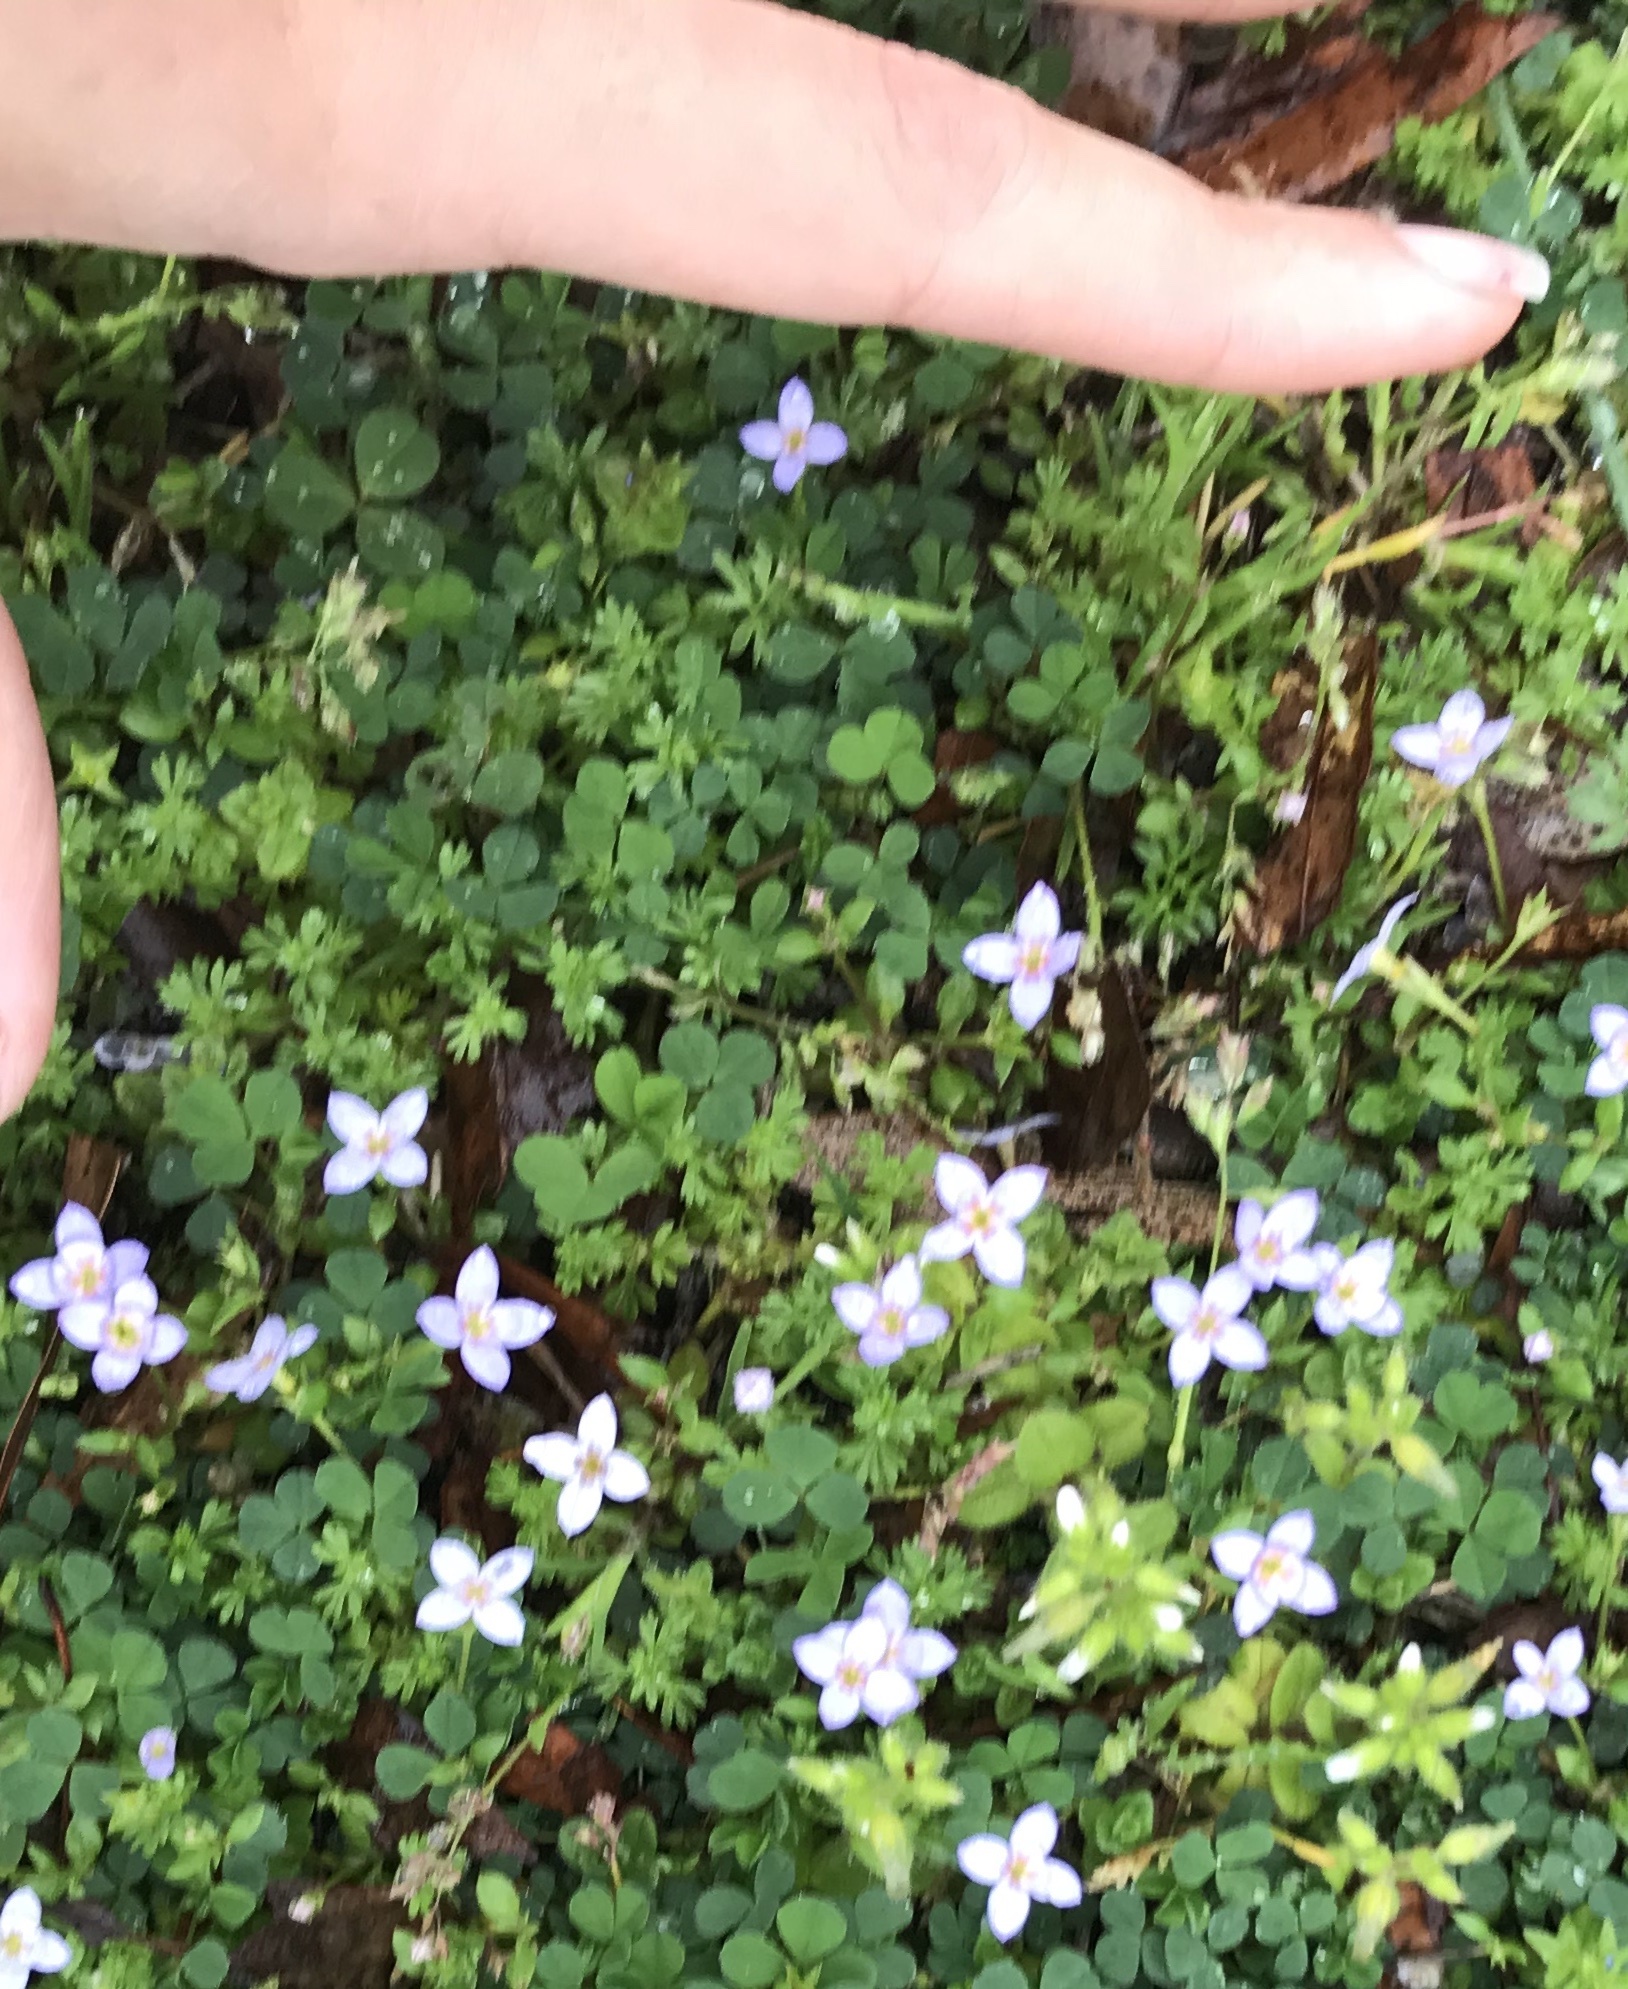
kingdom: Plantae
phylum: Tracheophyta
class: Magnoliopsida
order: Gentianales
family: Rubiaceae
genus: Houstonia
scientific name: Houstonia pusilla
